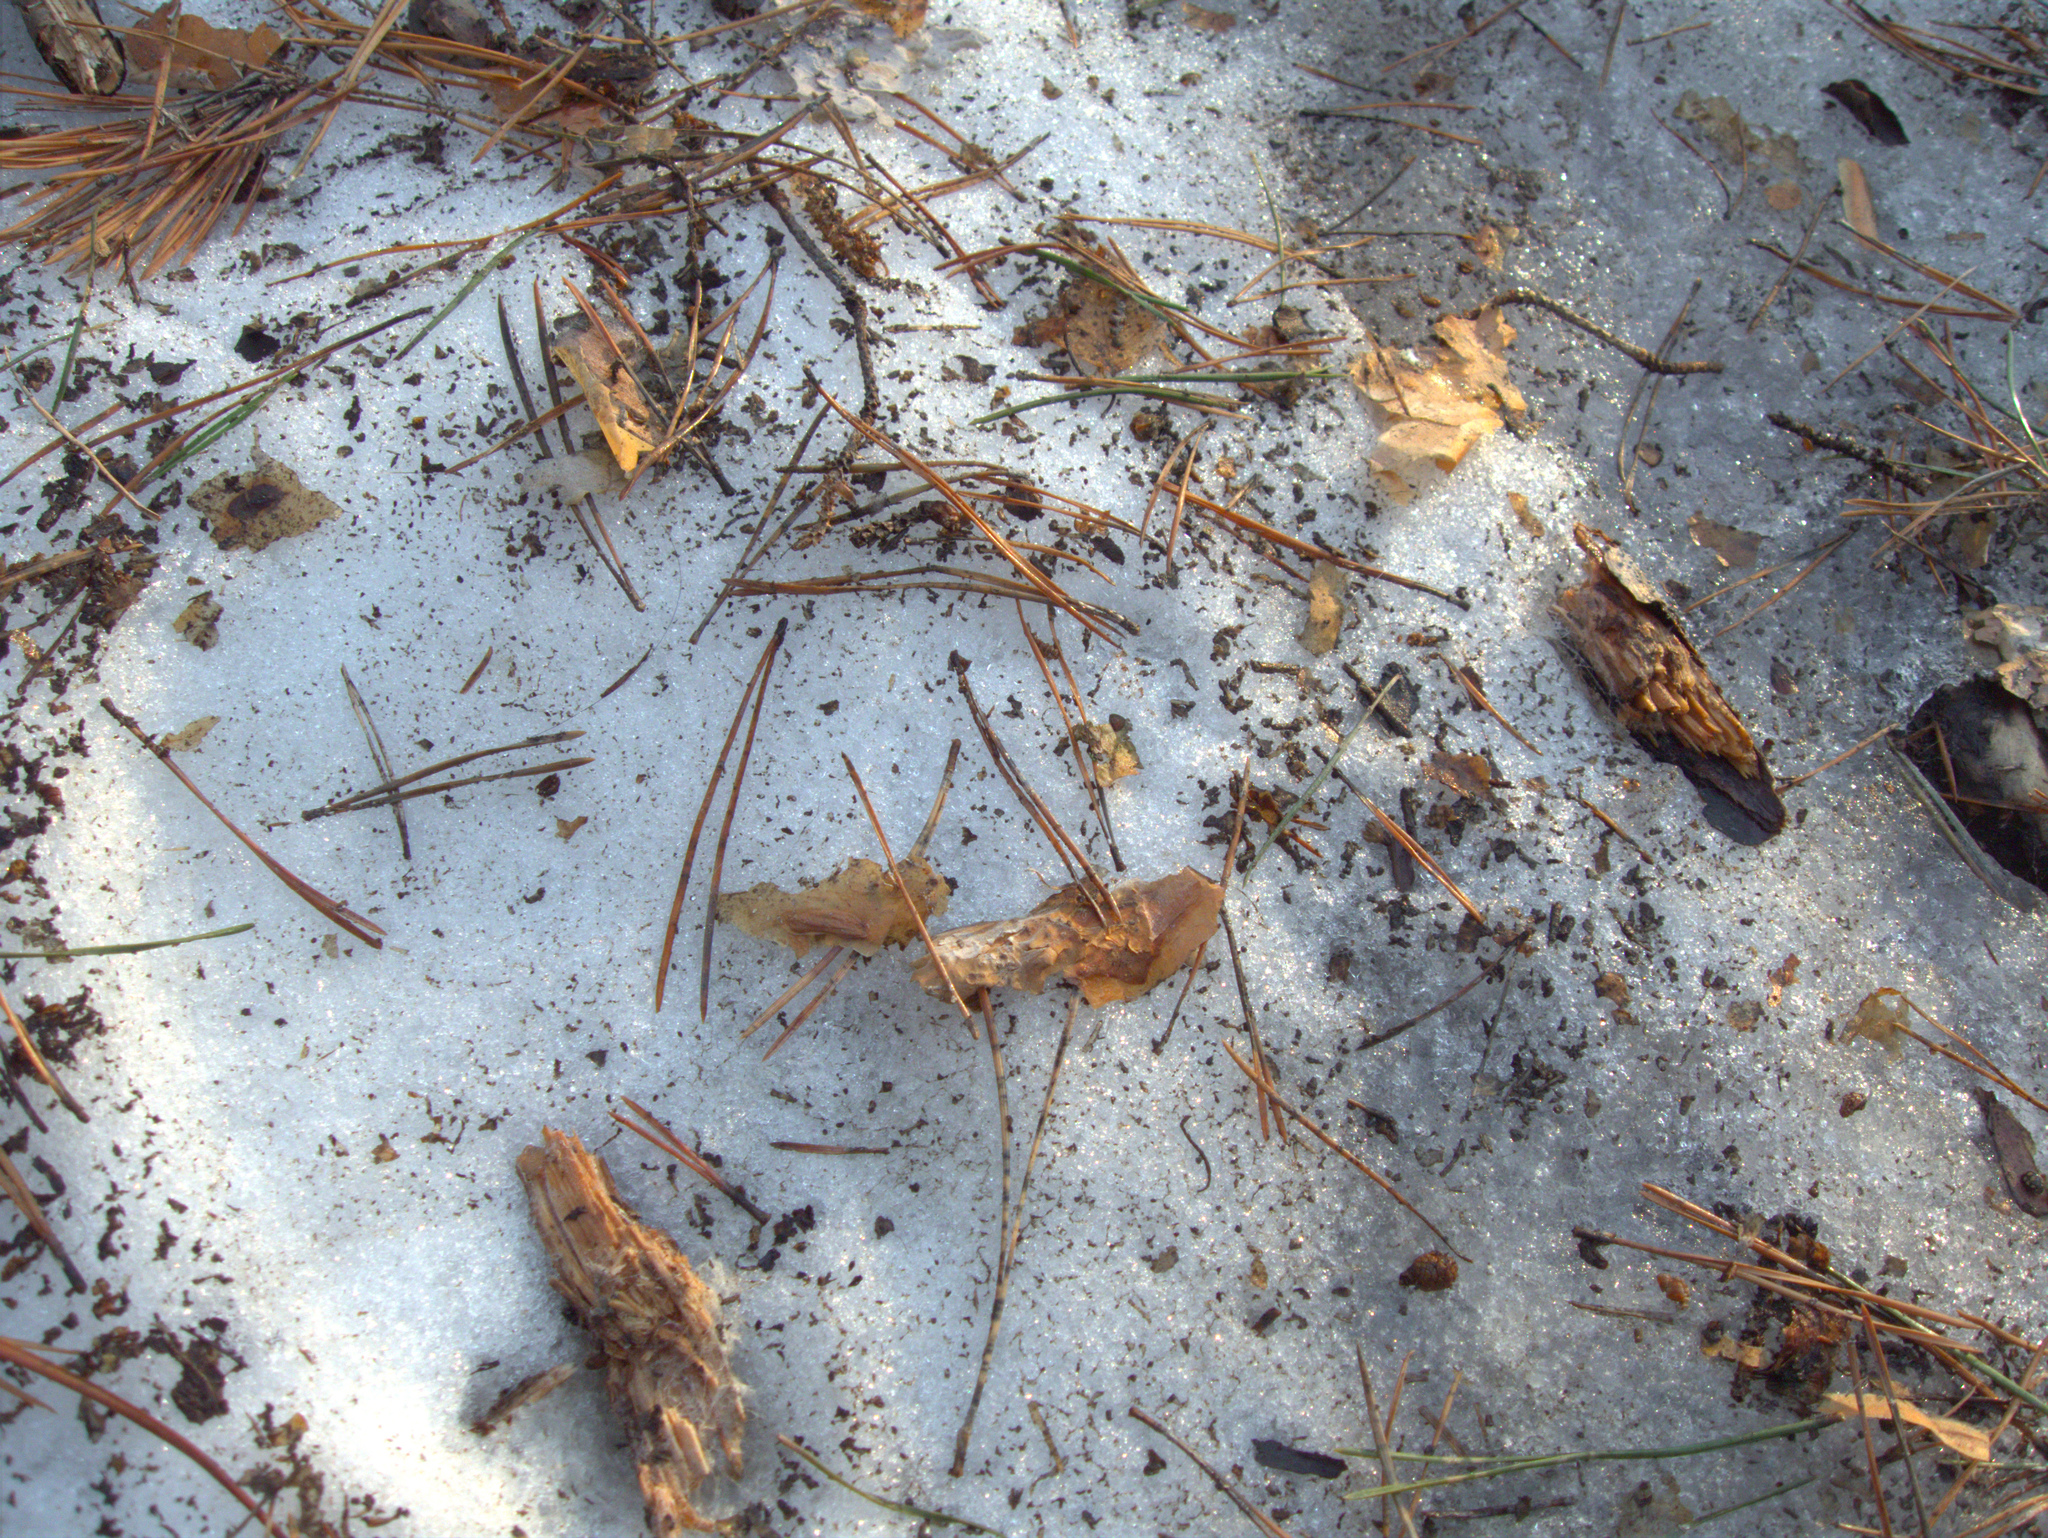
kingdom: Plantae
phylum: Tracheophyta
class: Pinopsida
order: Pinales
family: Pinaceae
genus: Pinus
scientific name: Pinus sylvestris
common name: Scots pine
